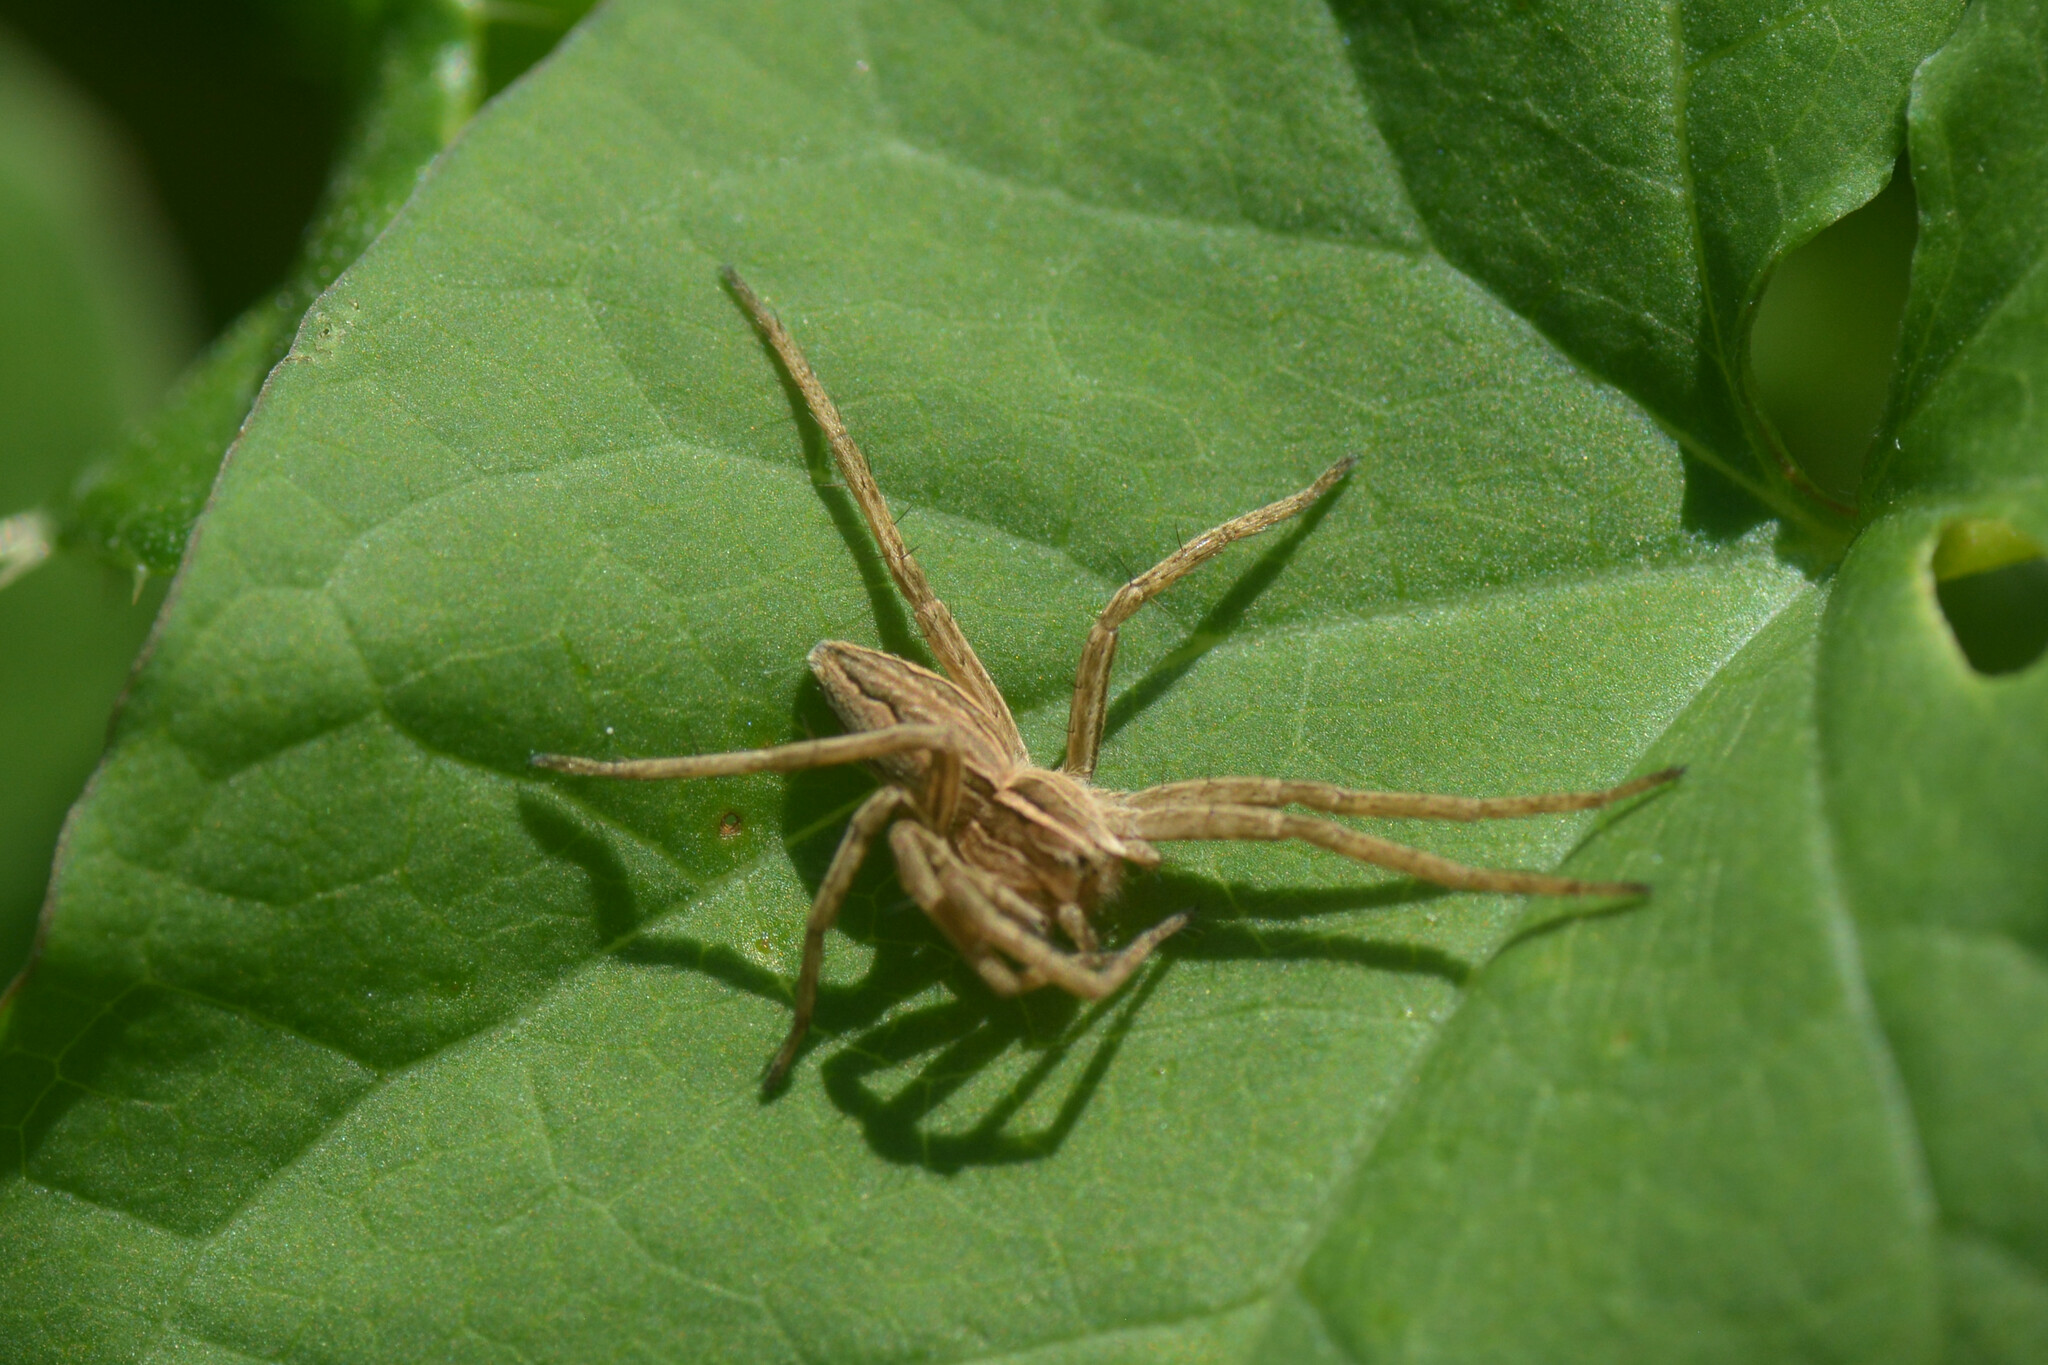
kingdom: Animalia
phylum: Arthropoda
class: Arachnida
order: Araneae
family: Pisauridae
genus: Pisaura
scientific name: Pisaura mirabilis
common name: Tent spider
